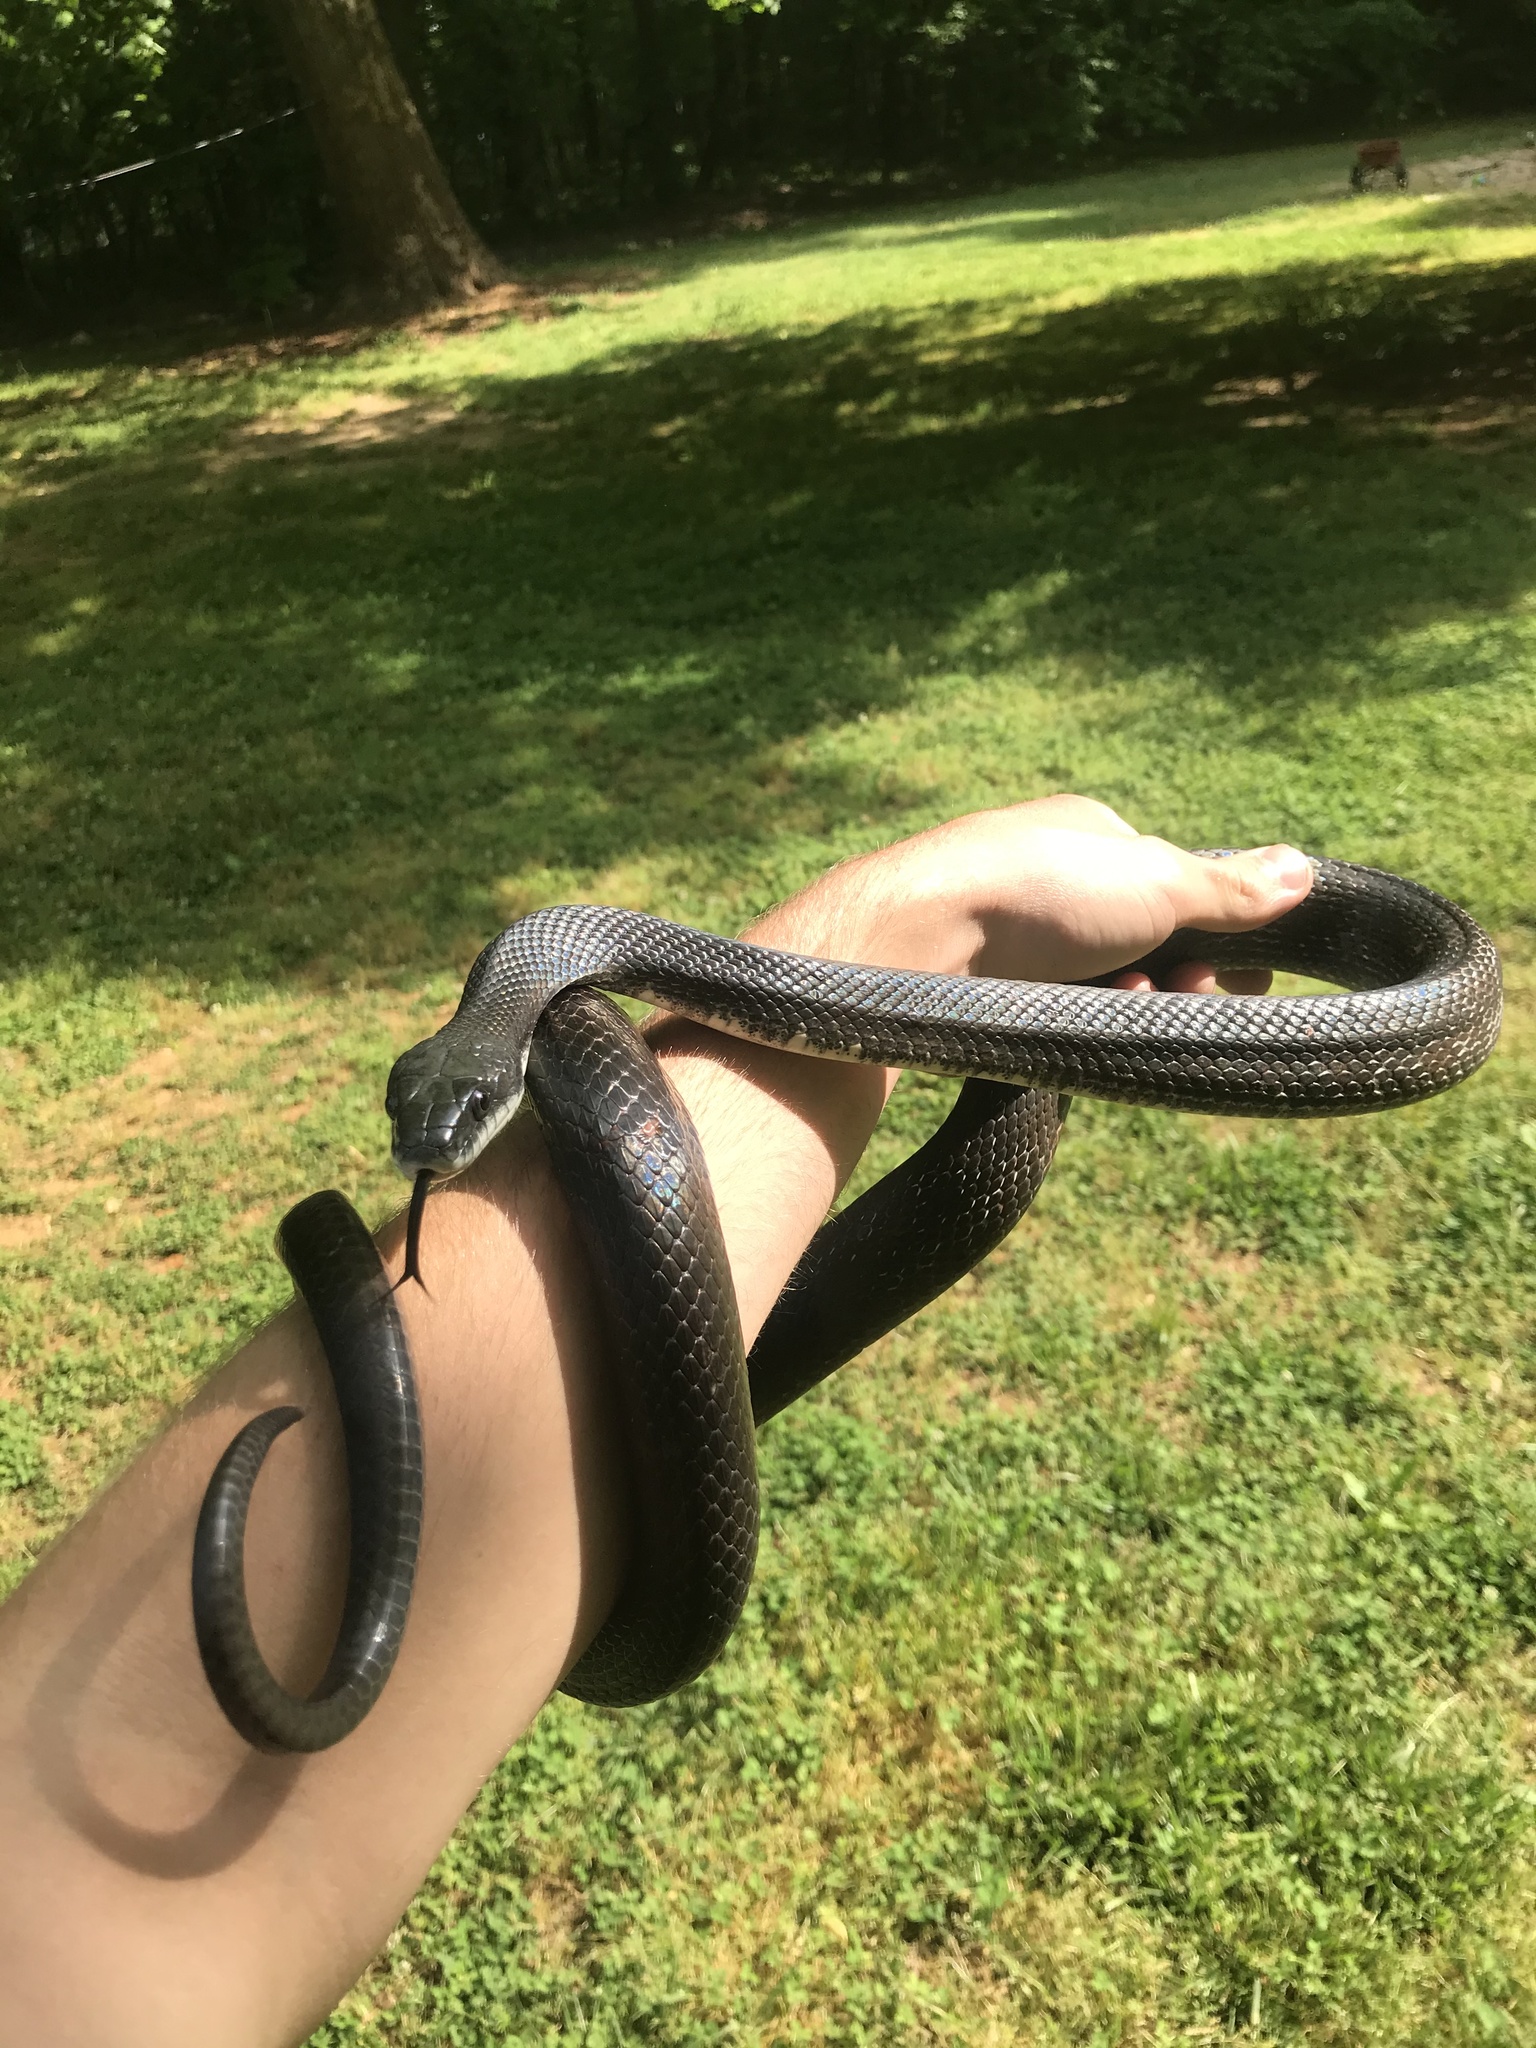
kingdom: Animalia
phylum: Chordata
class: Squamata
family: Colubridae
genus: Pantherophis
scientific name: Pantherophis alleghaniensis
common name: Eastern rat snake
